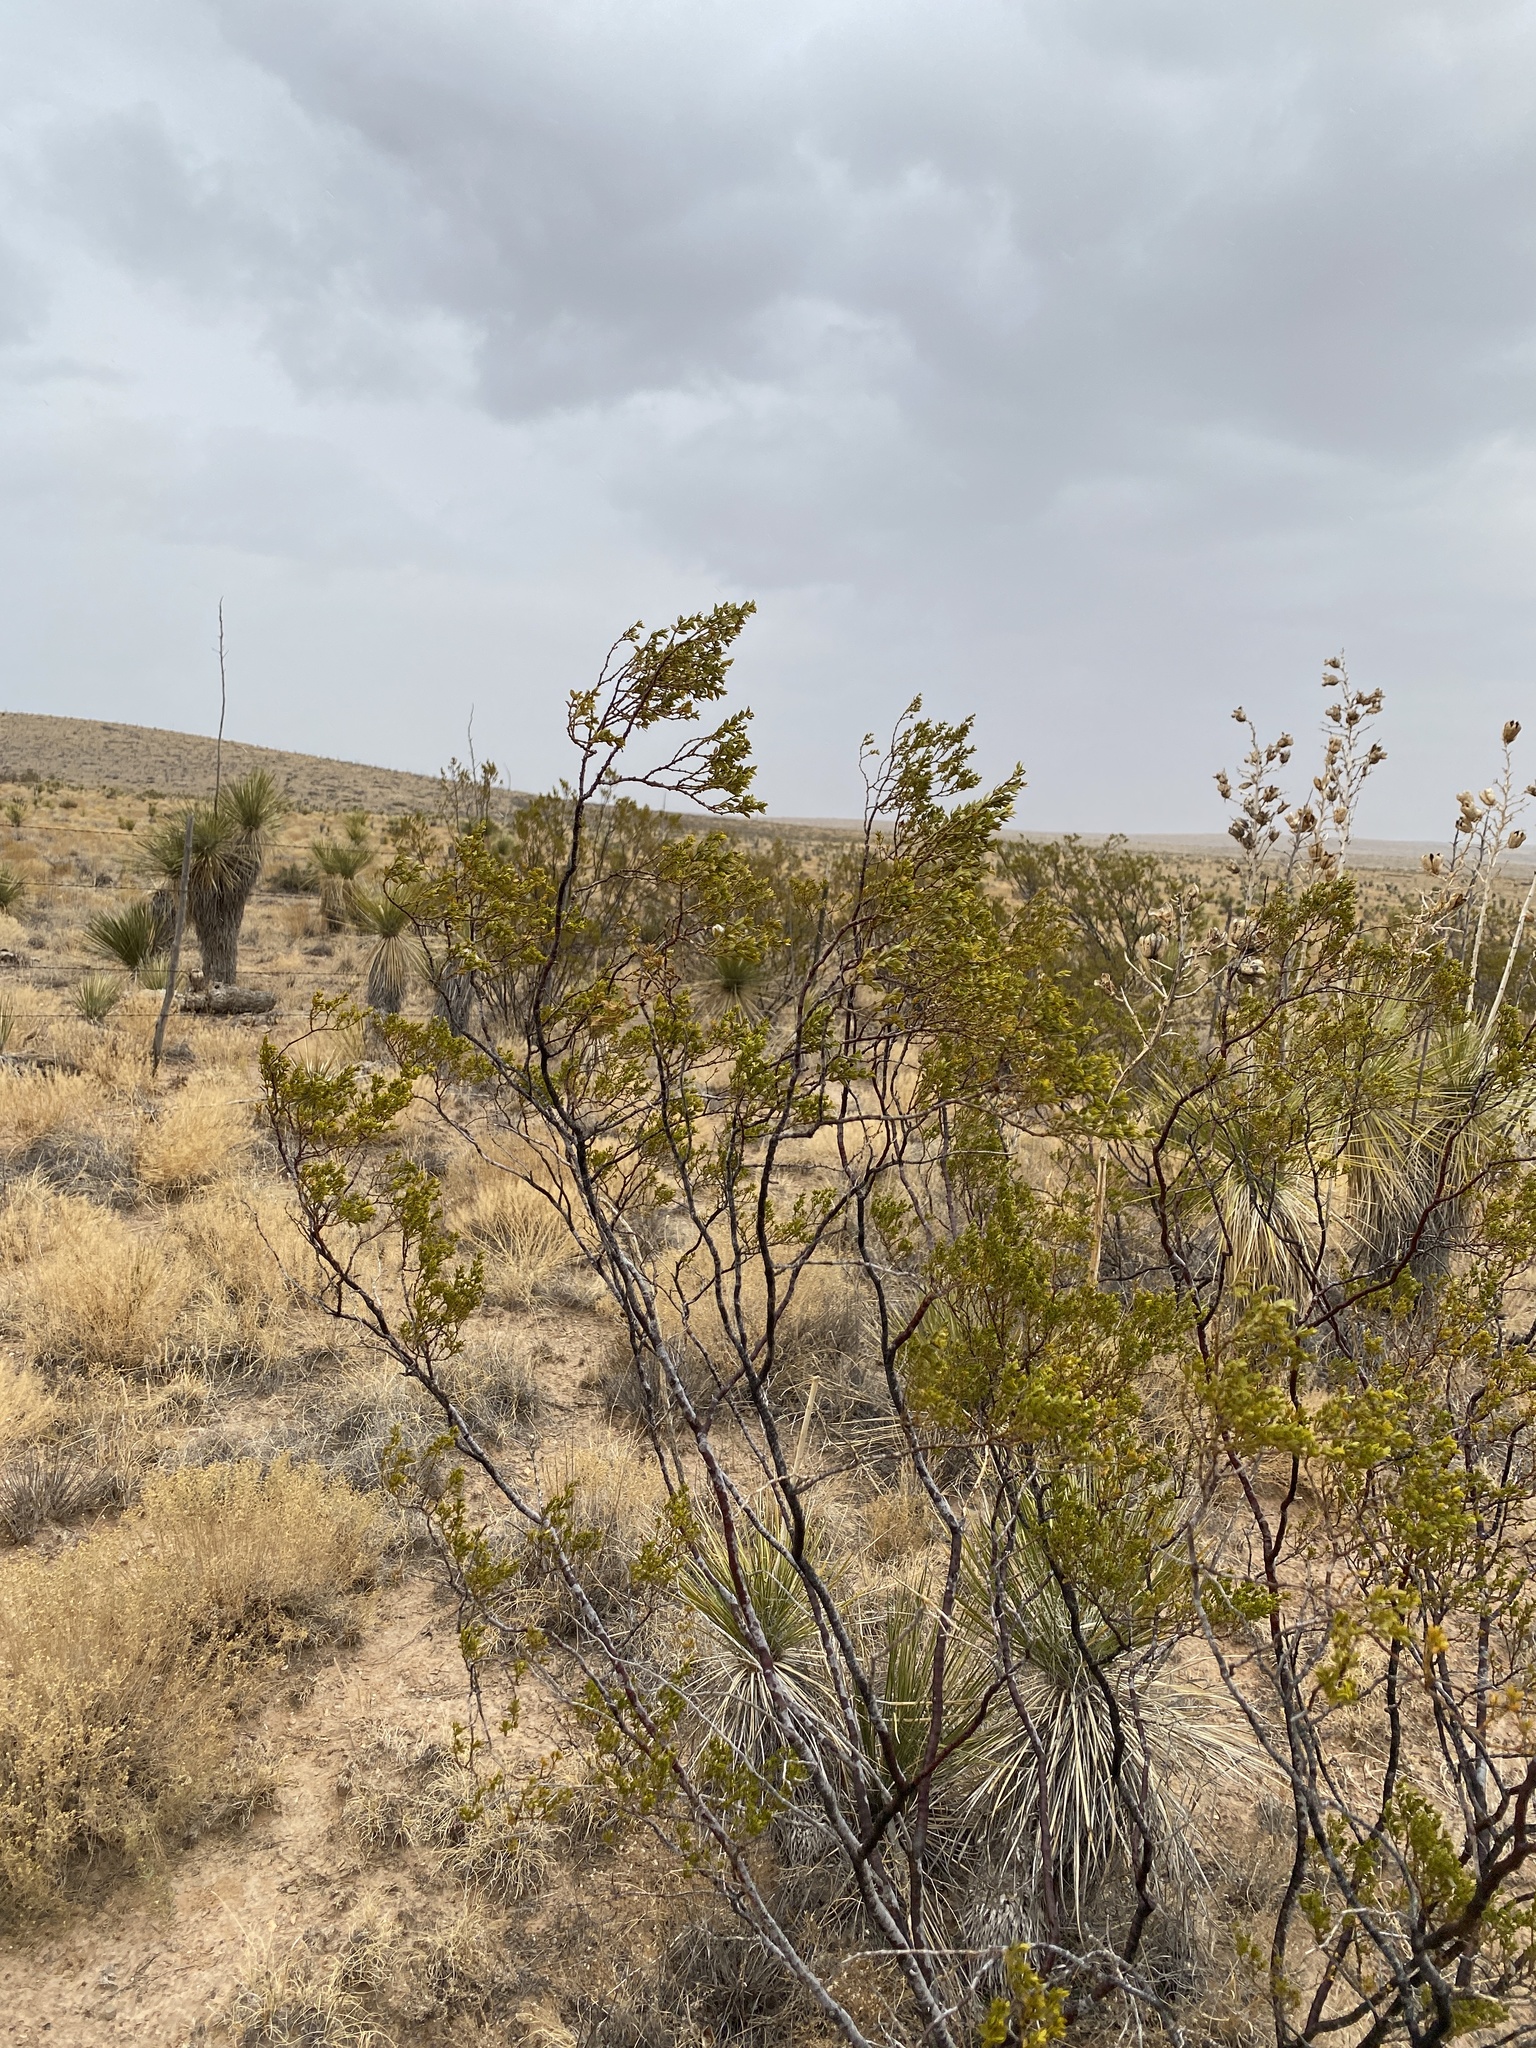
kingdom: Plantae
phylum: Tracheophyta
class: Magnoliopsida
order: Zygophyllales
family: Zygophyllaceae
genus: Larrea
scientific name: Larrea tridentata
